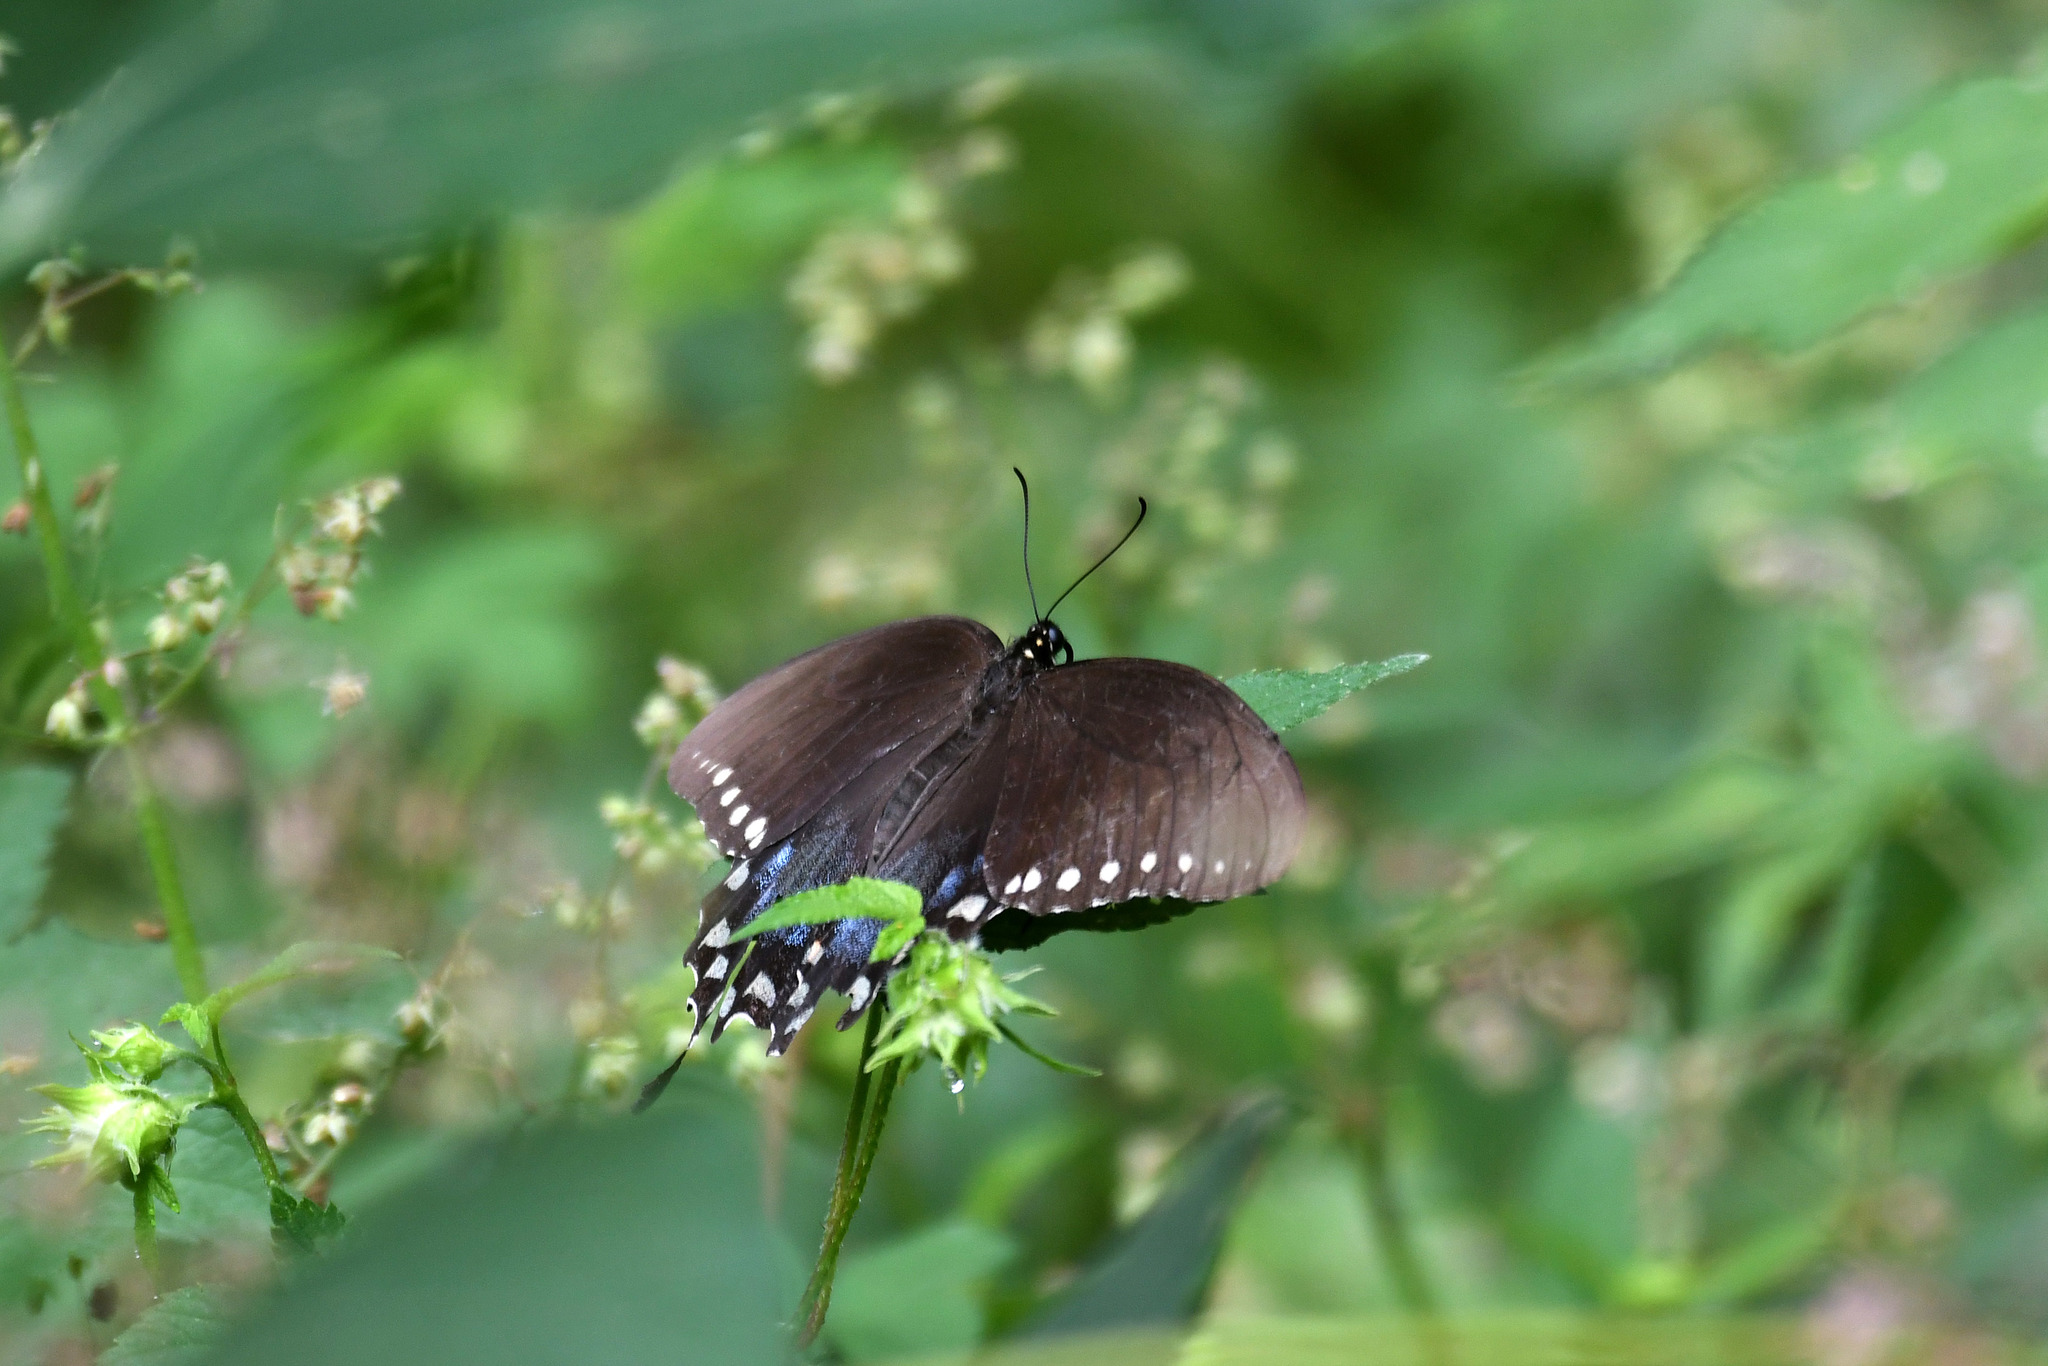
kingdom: Animalia
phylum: Arthropoda
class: Insecta
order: Lepidoptera
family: Papilionidae
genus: Papilio
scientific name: Papilio troilus
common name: Spicebush swallowtail
